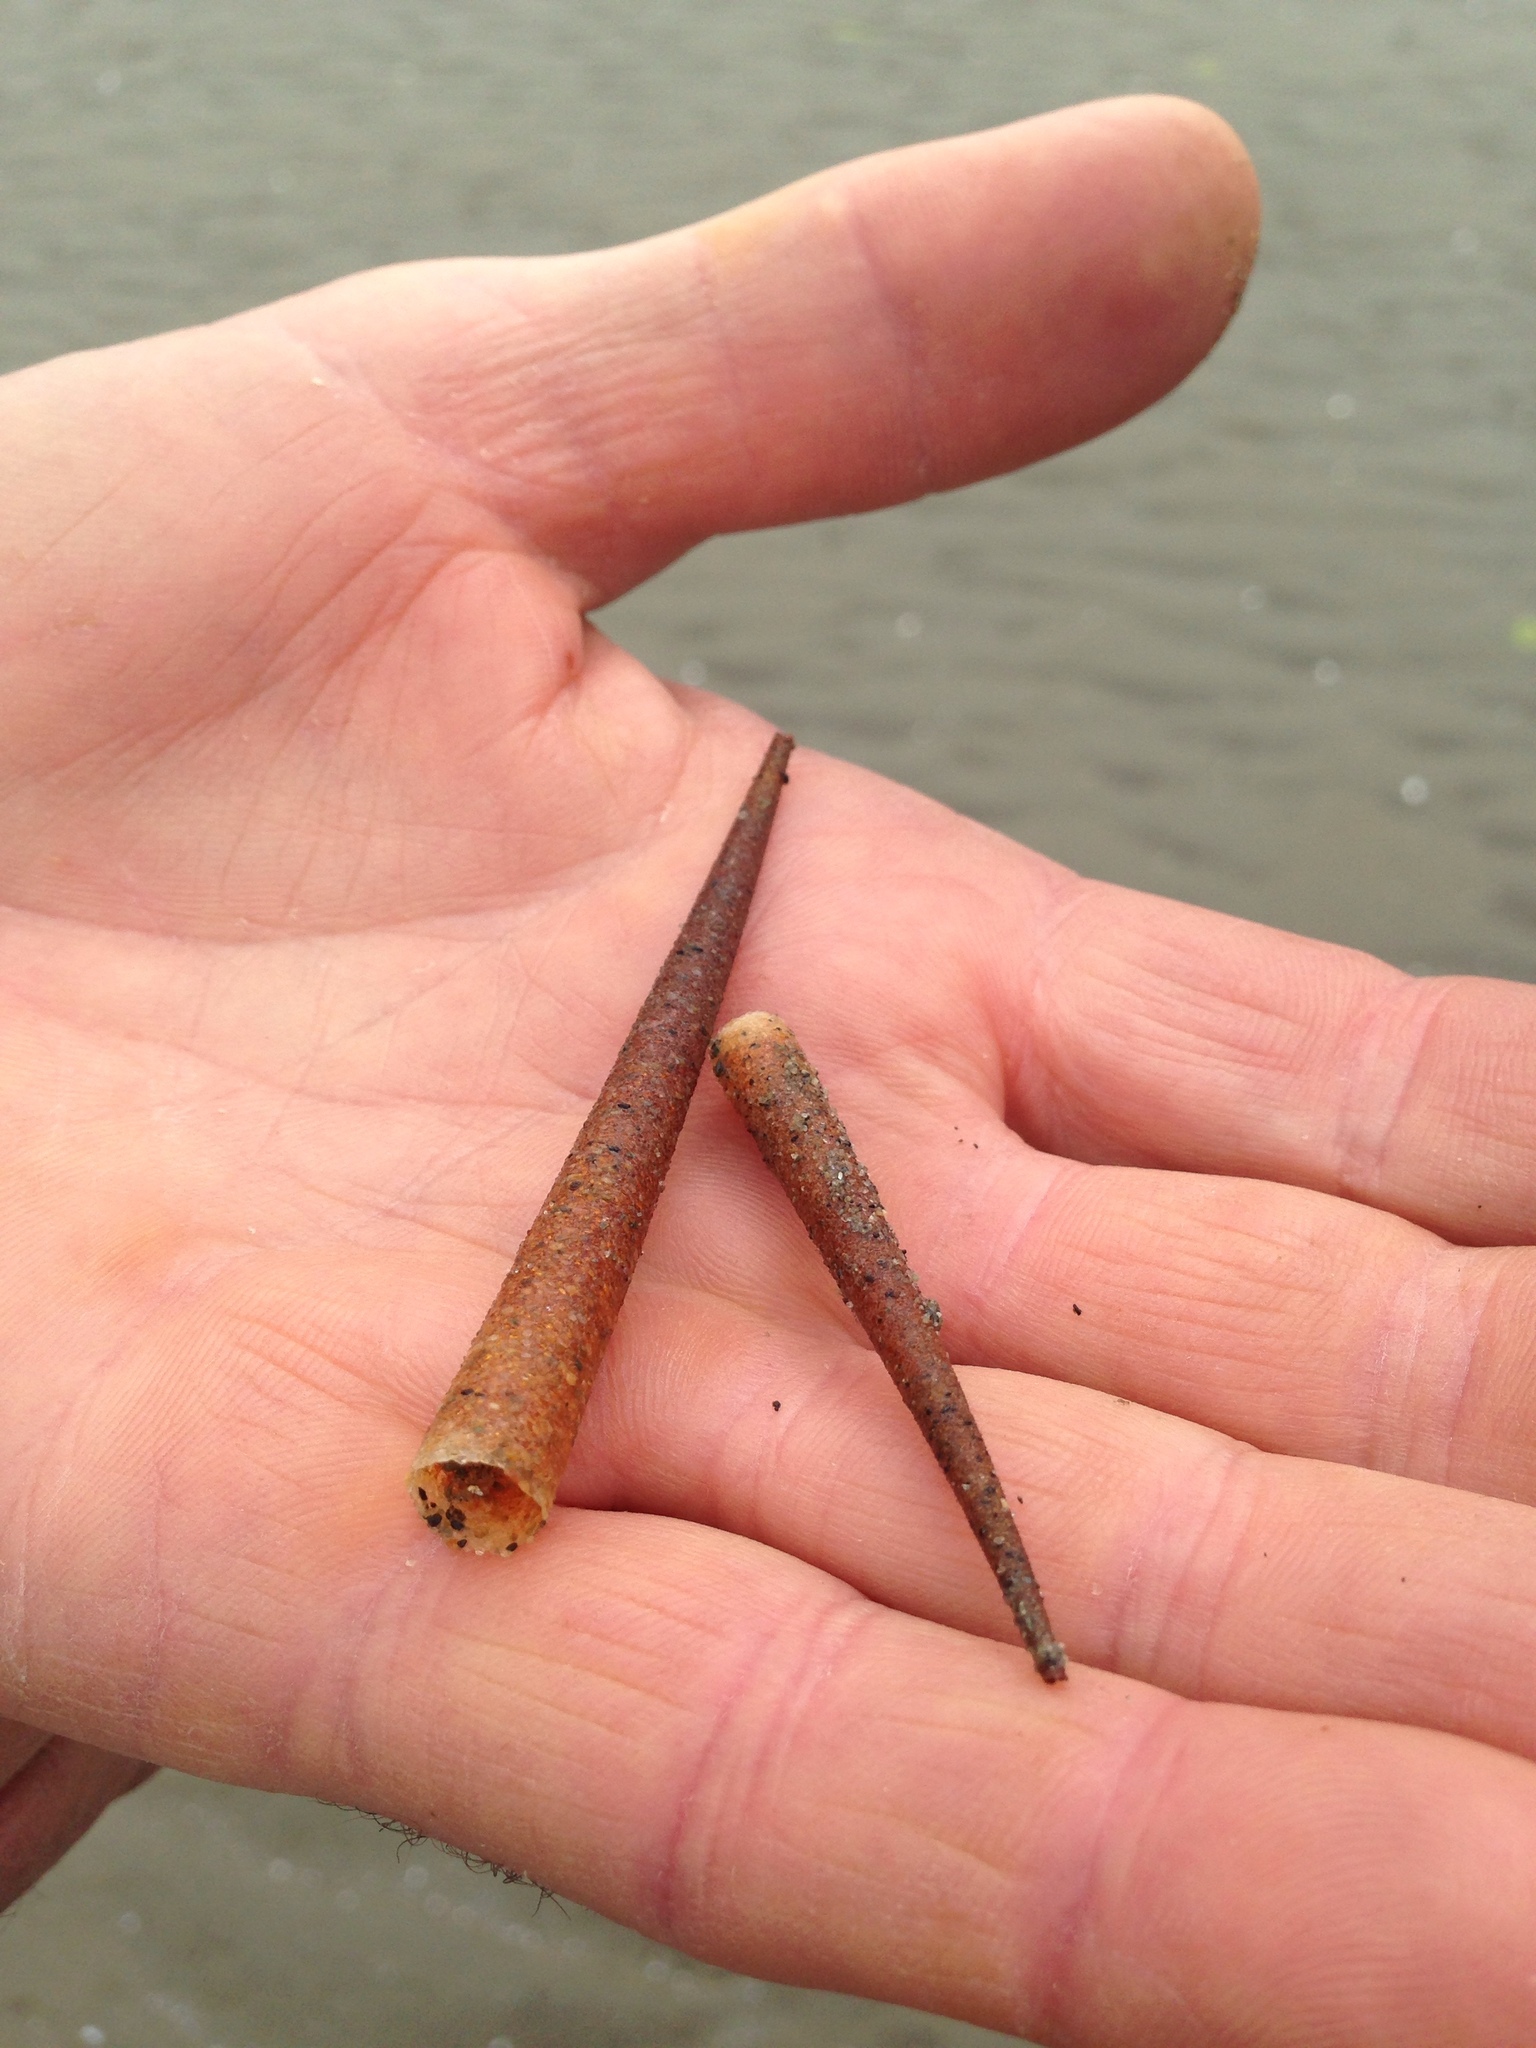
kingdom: Animalia
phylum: Annelida
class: Polychaeta
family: Pectinariidae
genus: Lagis
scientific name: Lagis australis
